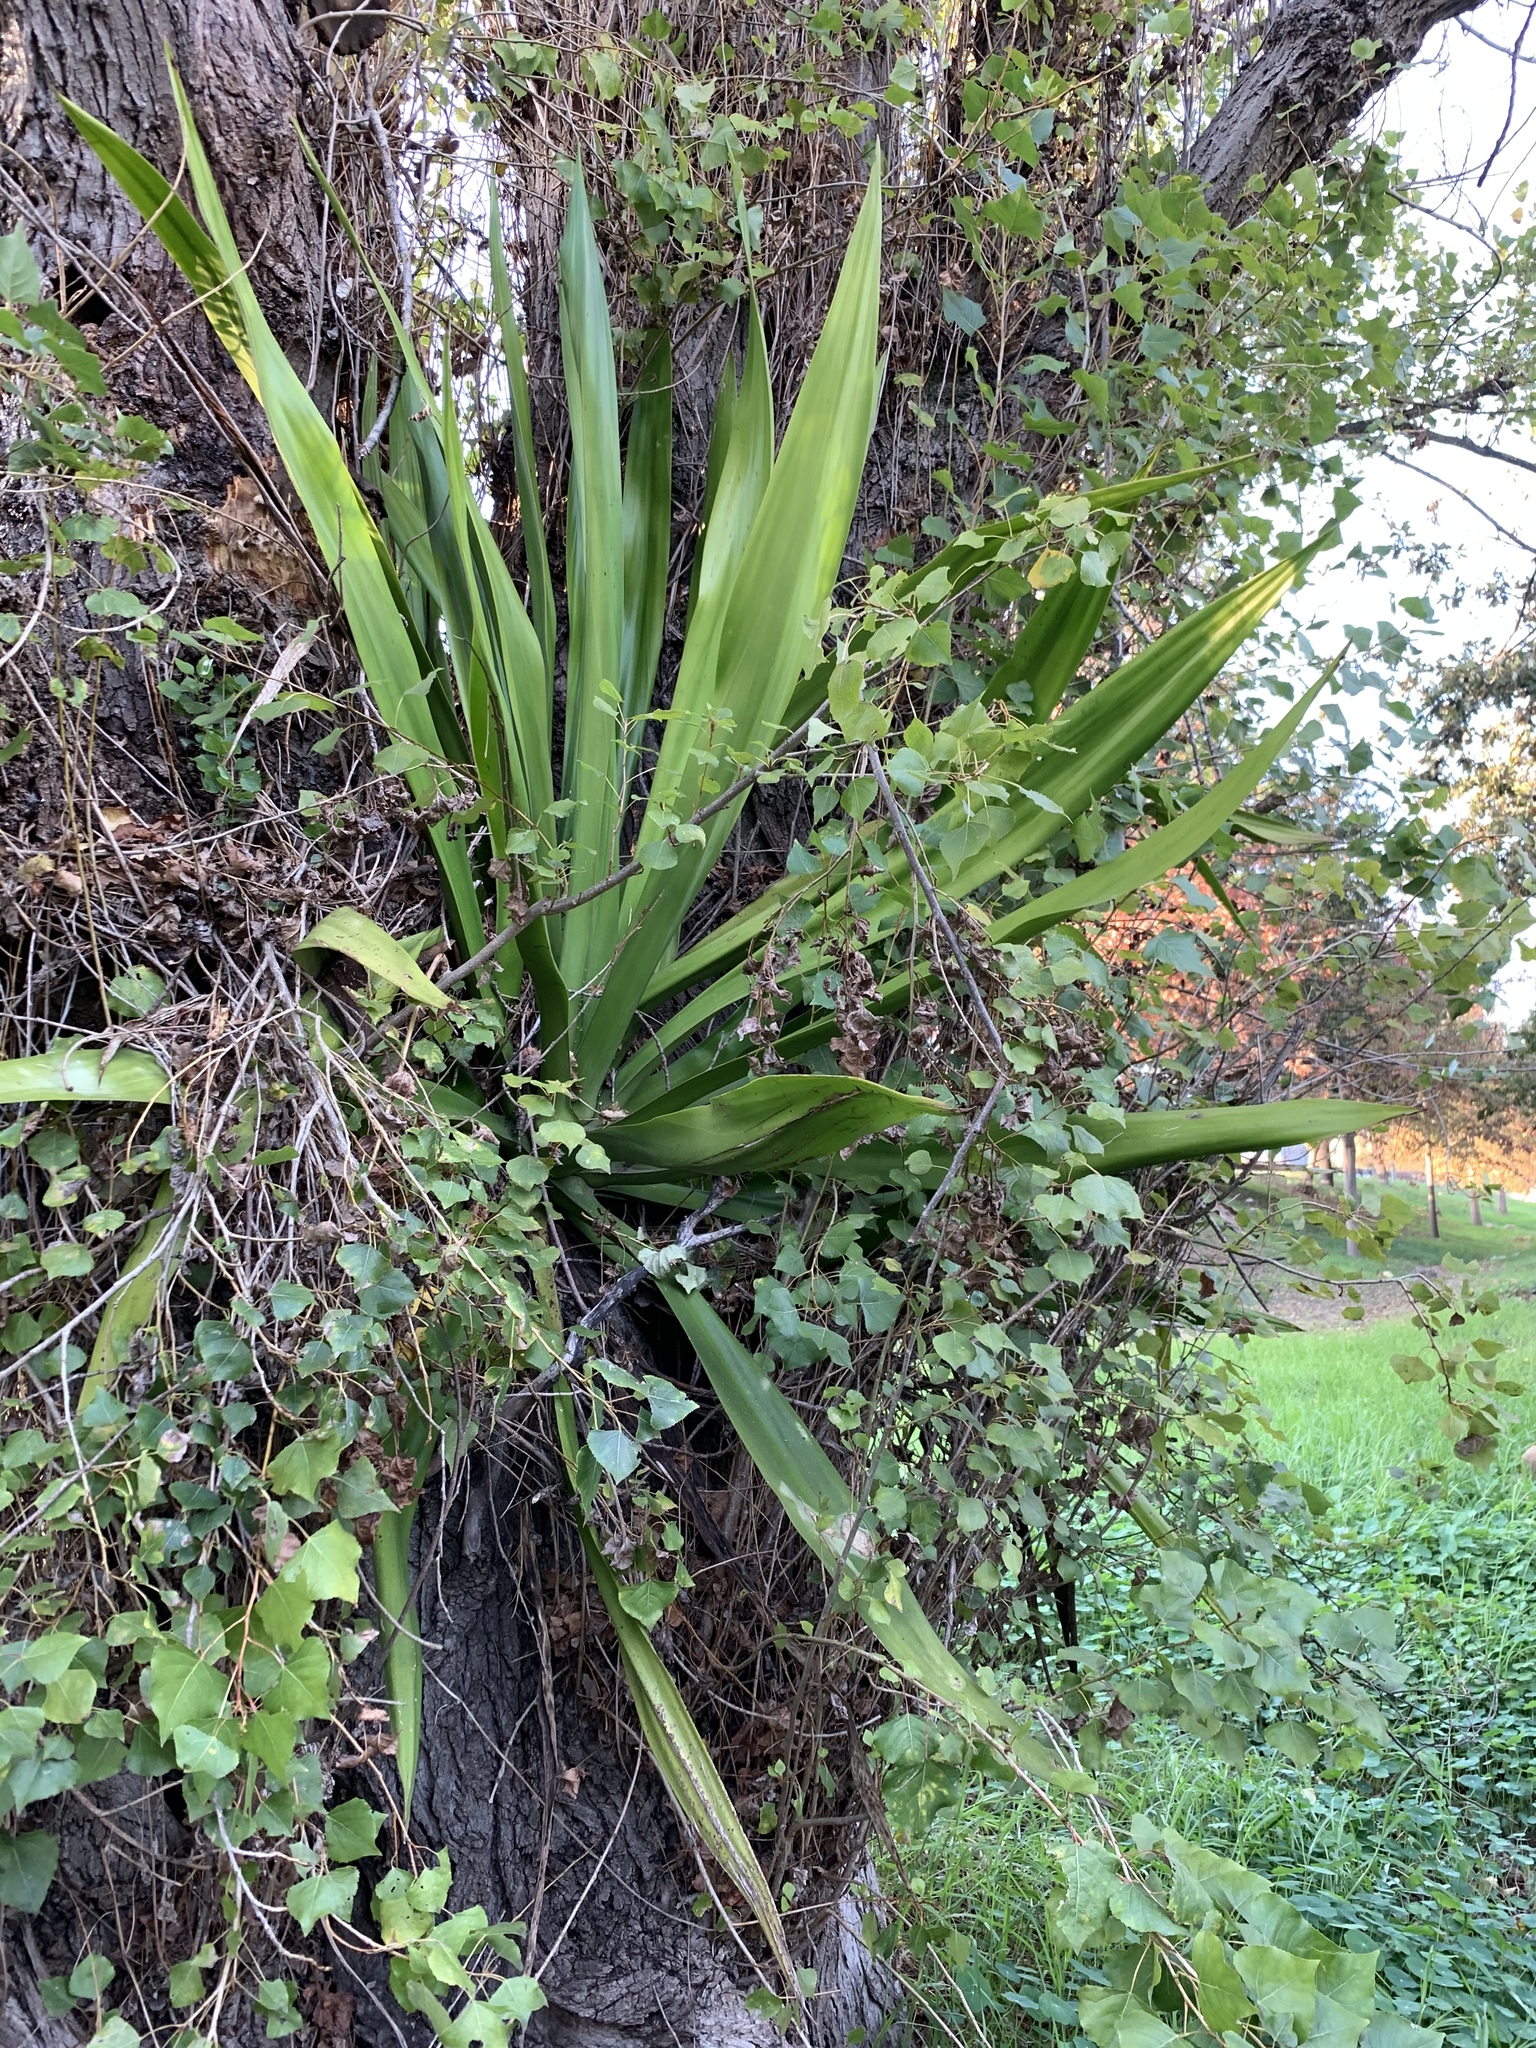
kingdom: Plantae
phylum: Tracheophyta
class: Liliopsida
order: Asparagales
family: Asparagaceae
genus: Furcraea
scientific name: Furcraea foetida
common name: Mauritius hemp
